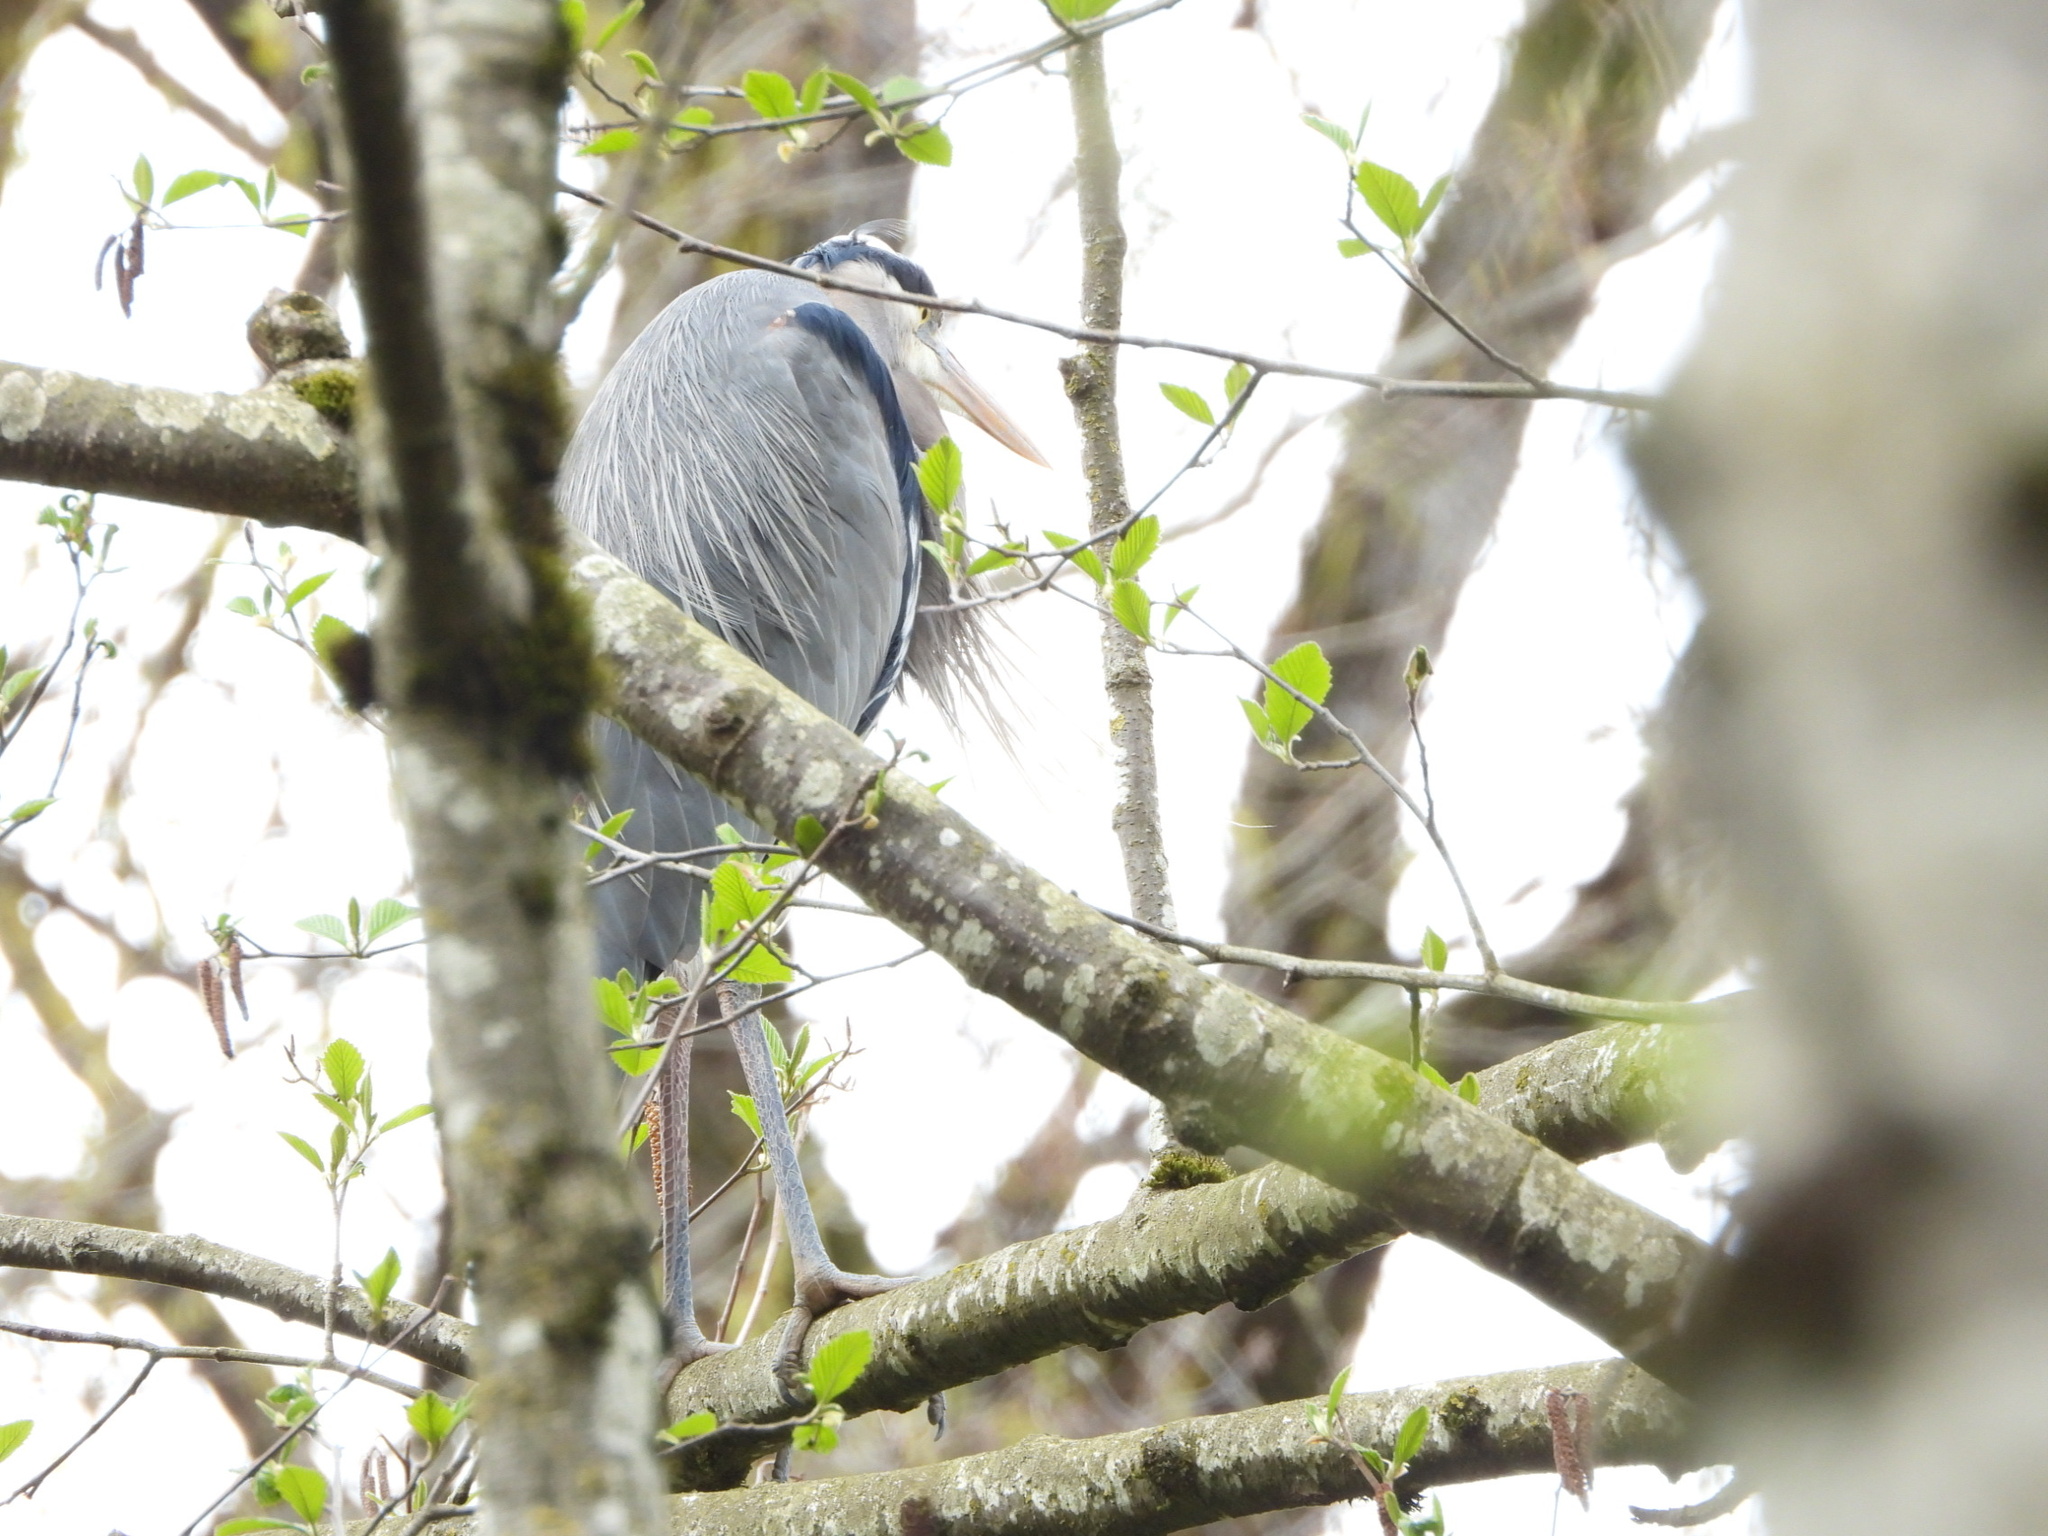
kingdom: Animalia
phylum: Chordata
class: Aves
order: Pelecaniformes
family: Ardeidae
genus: Ardea
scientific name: Ardea herodias
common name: Great blue heron
